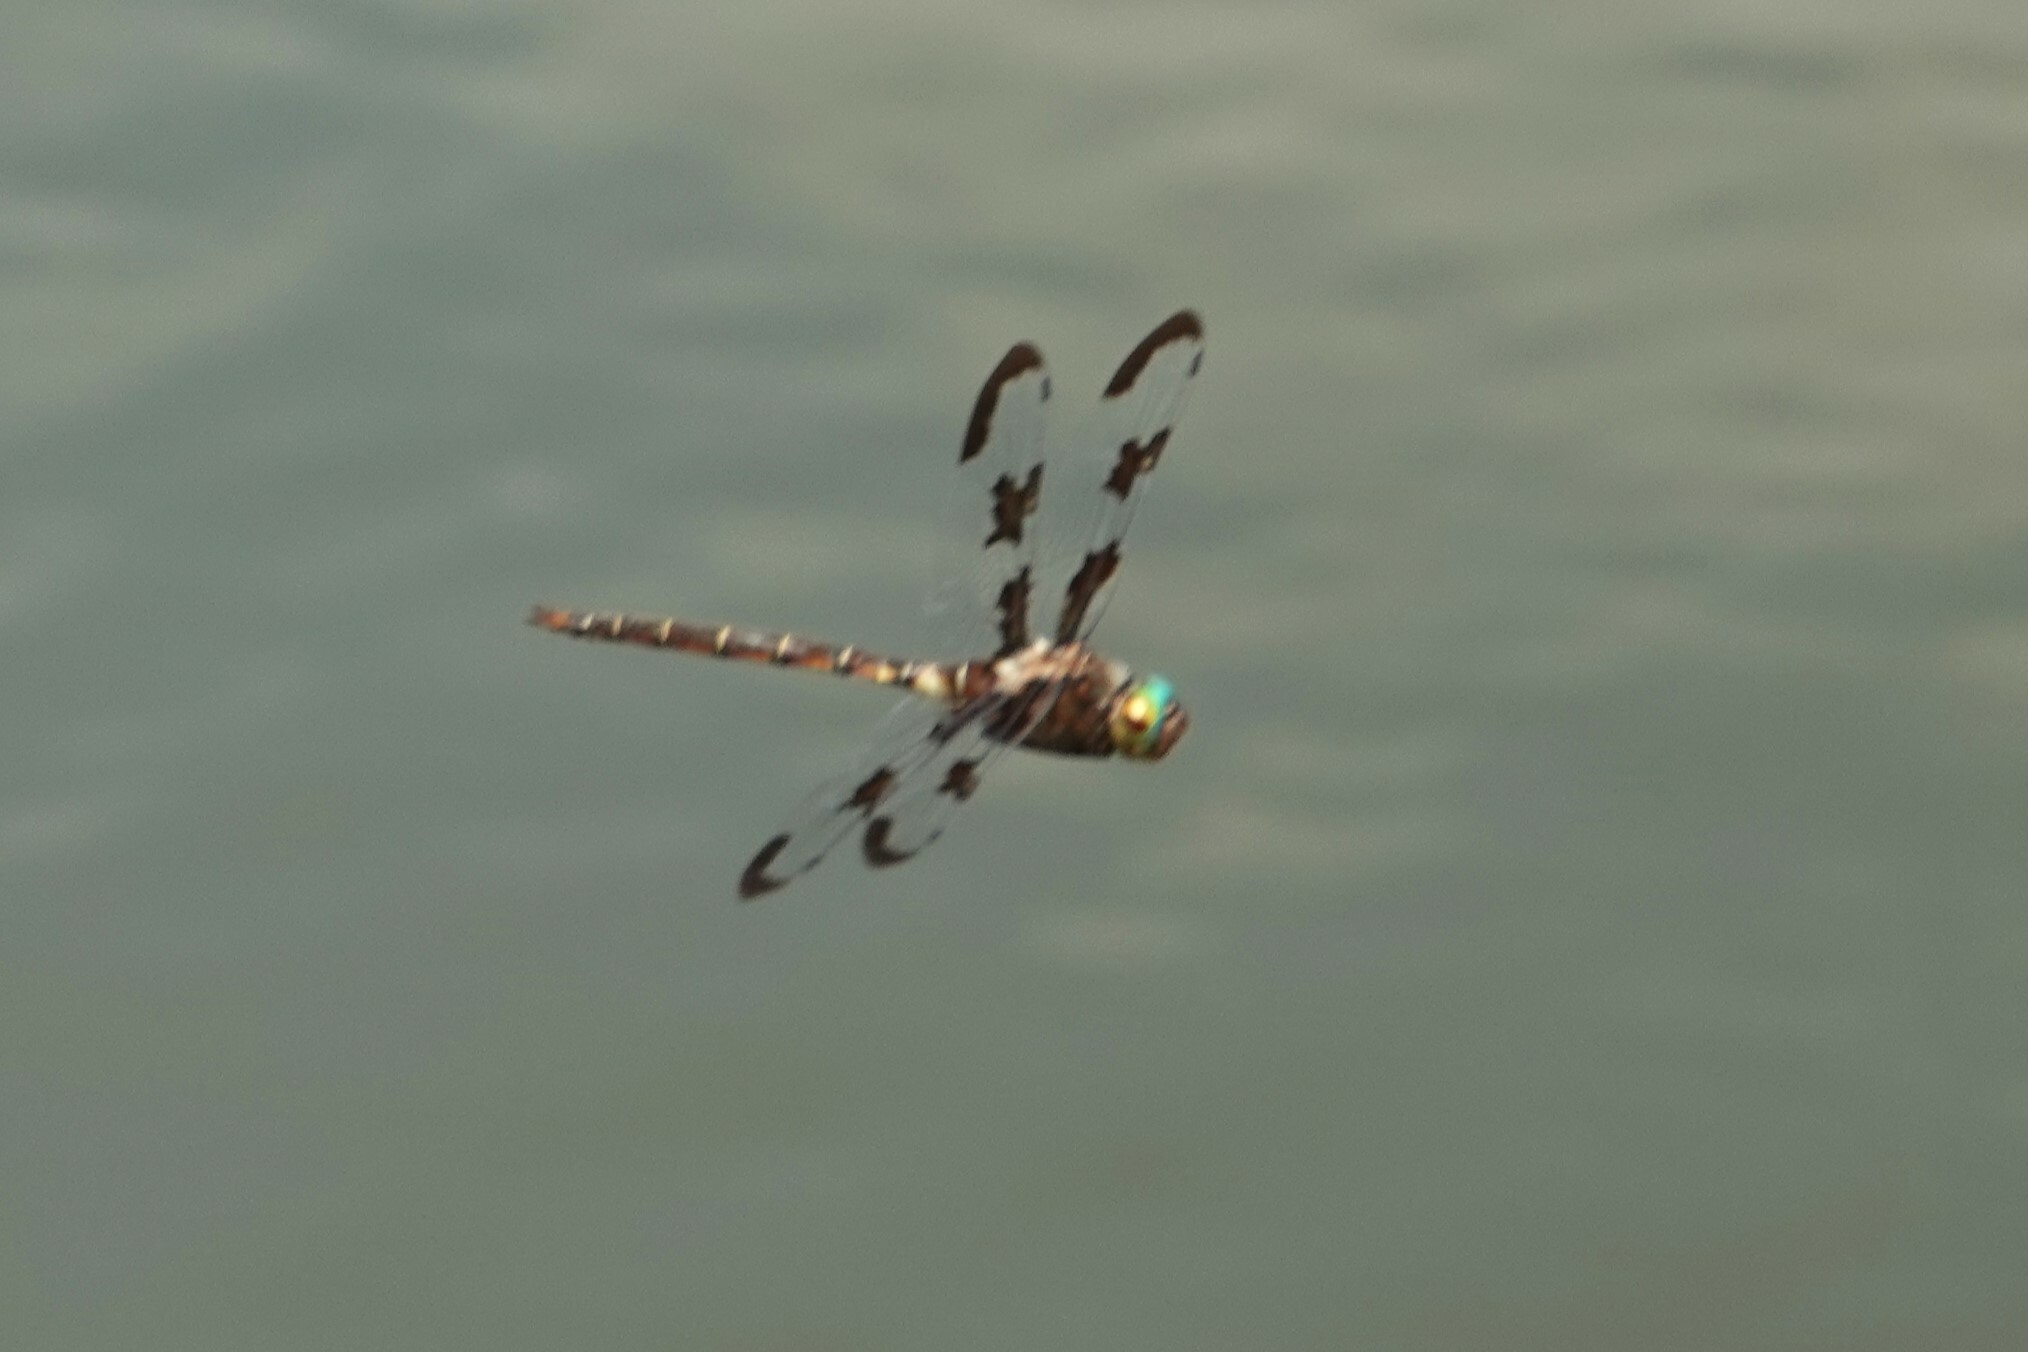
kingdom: Animalia
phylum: Arthropoda
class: Insecta
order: Odonata
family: Corduliidae
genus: Epitheca
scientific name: Epitheca princeps
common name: Prince baskettail
